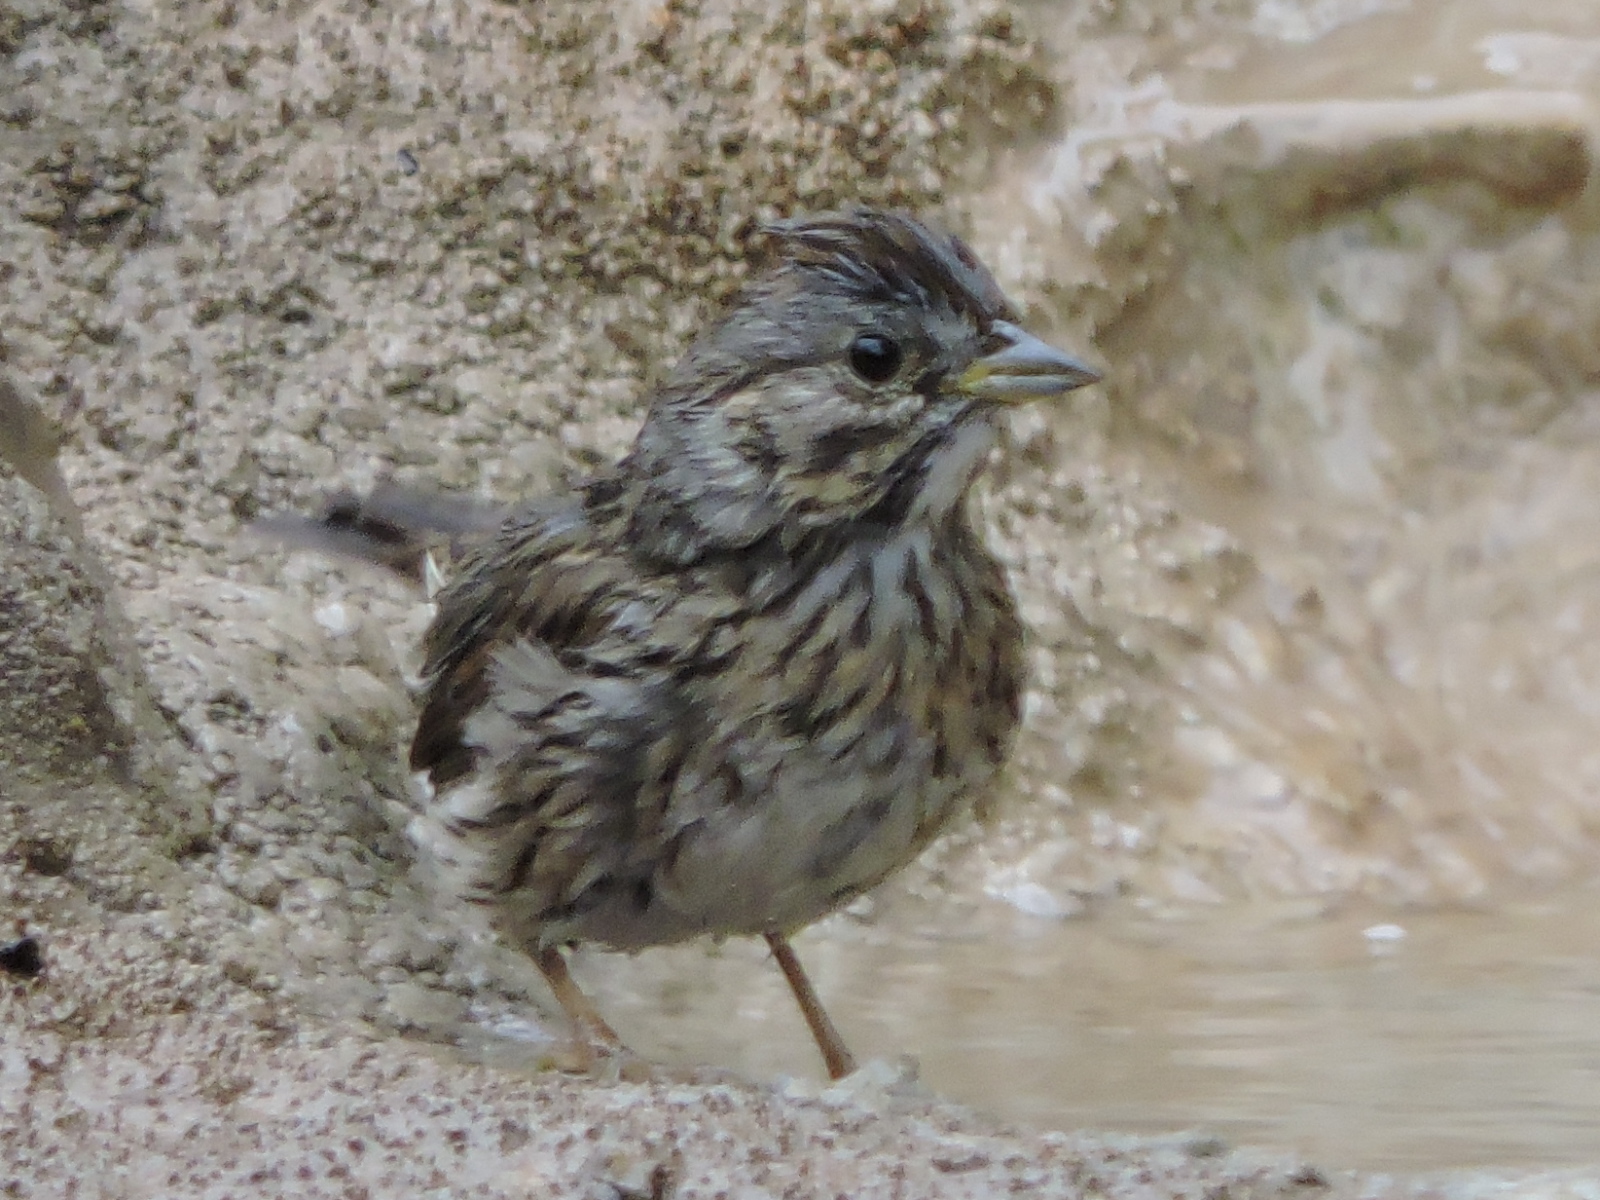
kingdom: Animalia
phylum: Chordata
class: Aves
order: Passeriformes
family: Passerellidae
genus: Melospiza
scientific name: Melospiza lincolnii
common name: Lincoln's sparrow
